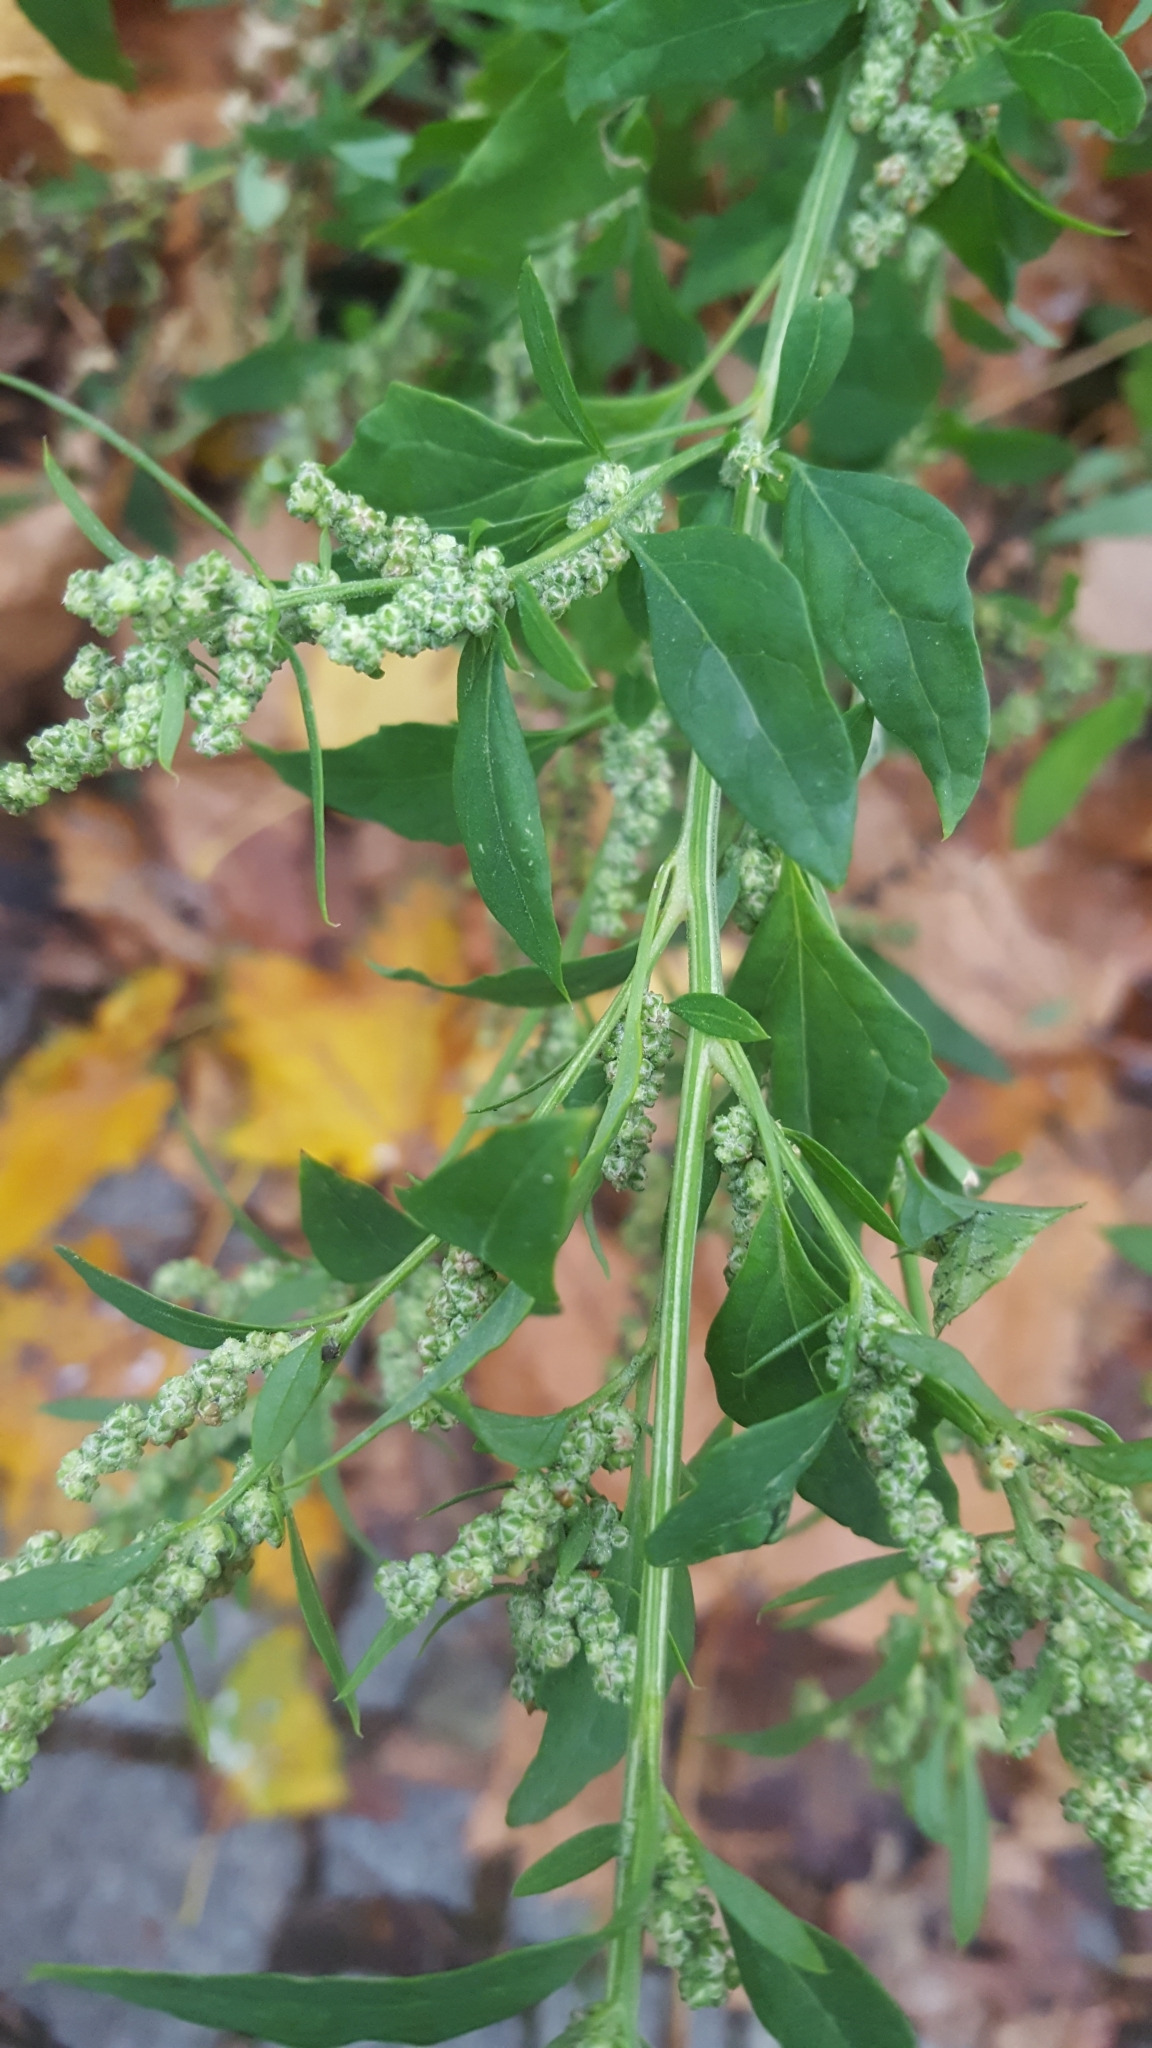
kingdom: Plantae
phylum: Tracheophyta
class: Magnoliopsida
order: Caryophyllales
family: Amaranthaceae
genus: Chenopodium
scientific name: Chenopodium album
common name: Fat-hen
